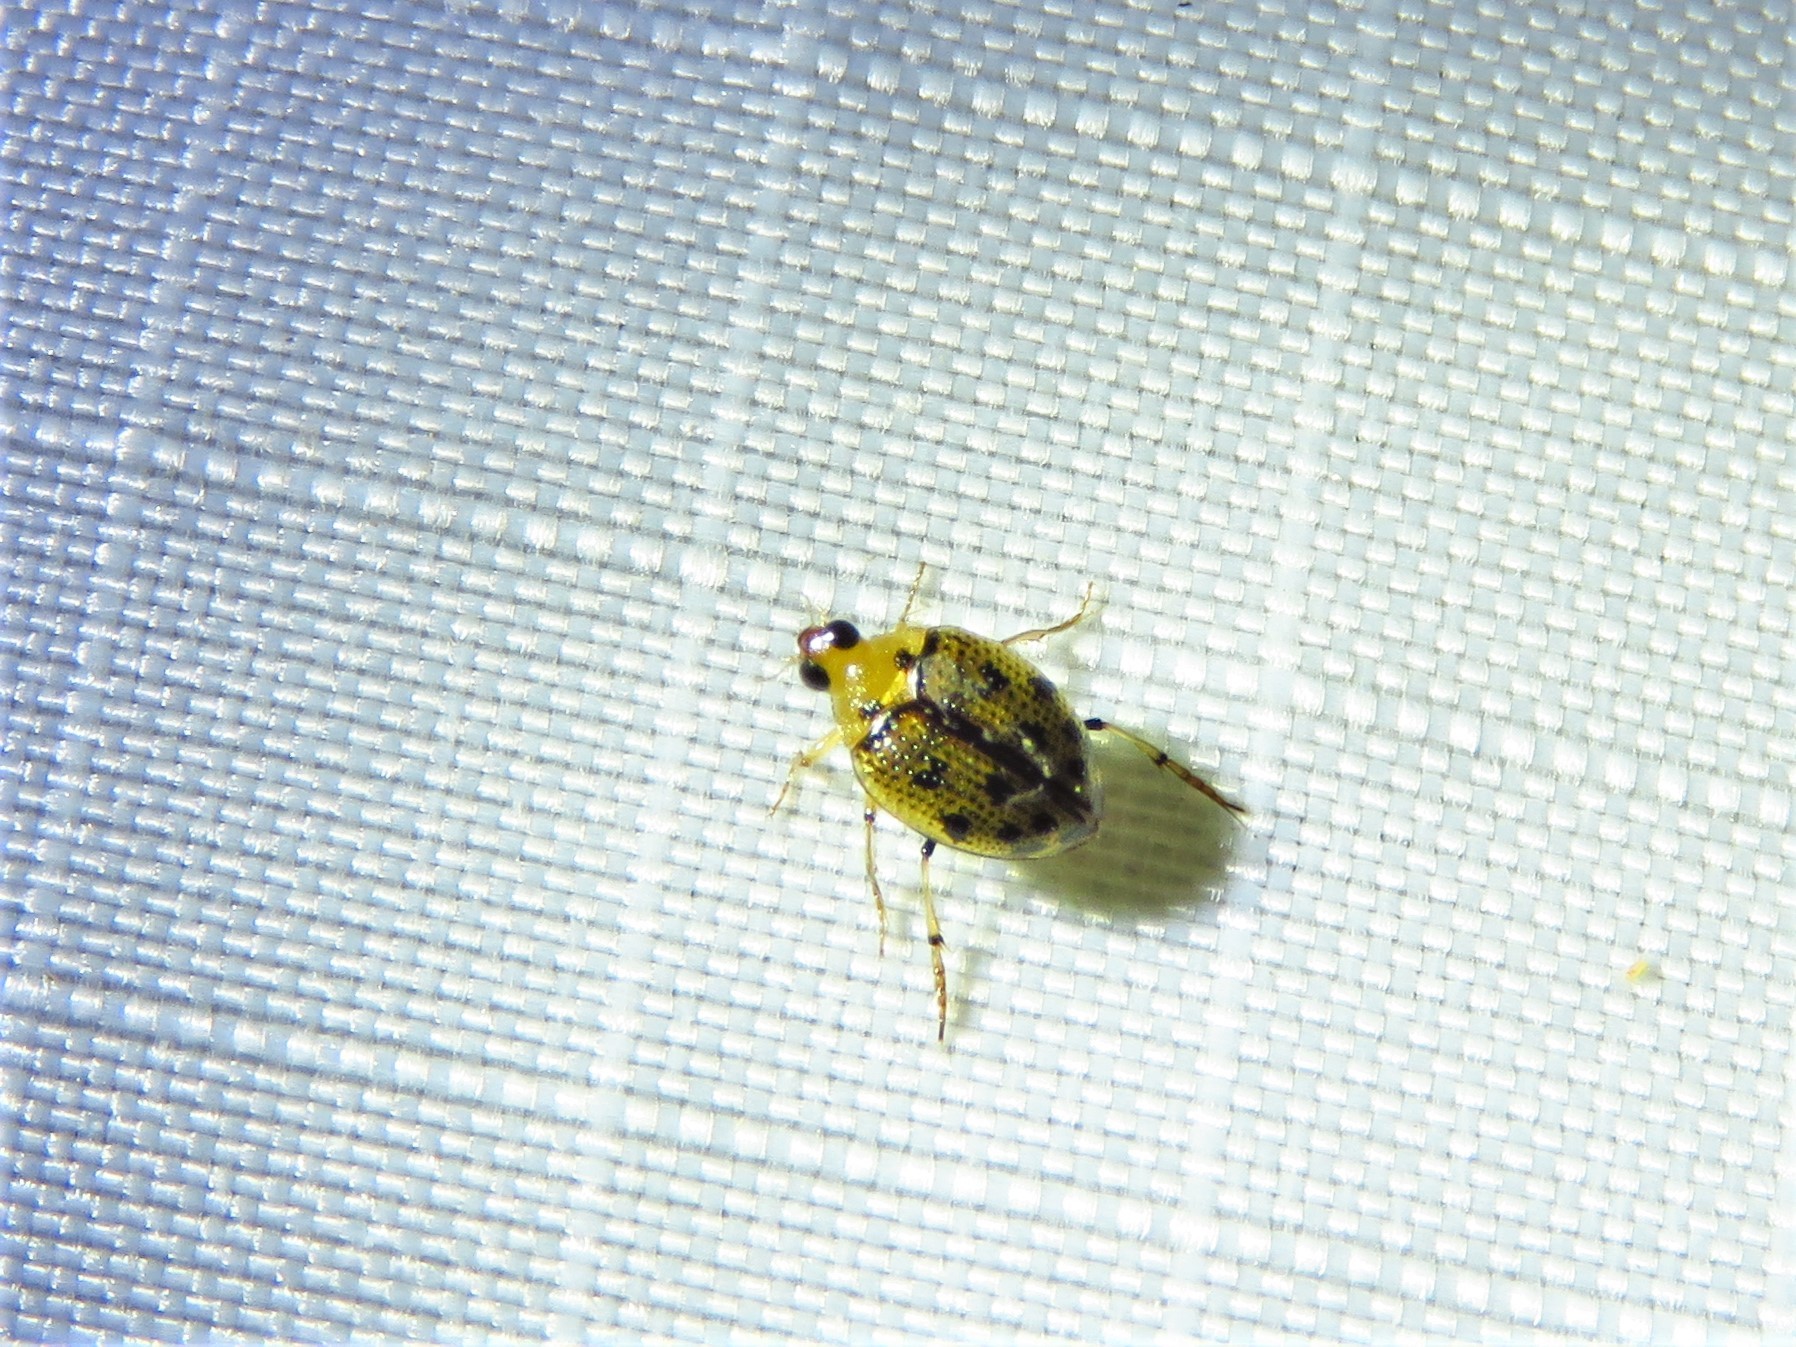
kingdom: Animalia
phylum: Arthropoda
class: Insecta
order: Coleoptera
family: Haliplidae
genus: Peltodytes
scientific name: Peltodytes sexmaculatus
